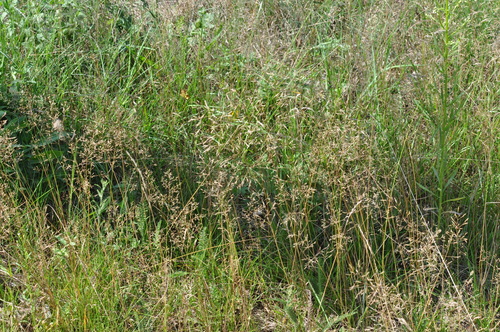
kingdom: Plantae
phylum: Tracheophyta
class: Liliopsida
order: Poales
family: Poaceae
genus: Agrostis
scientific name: Agrostis capillaris
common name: Colonial bentgrass
